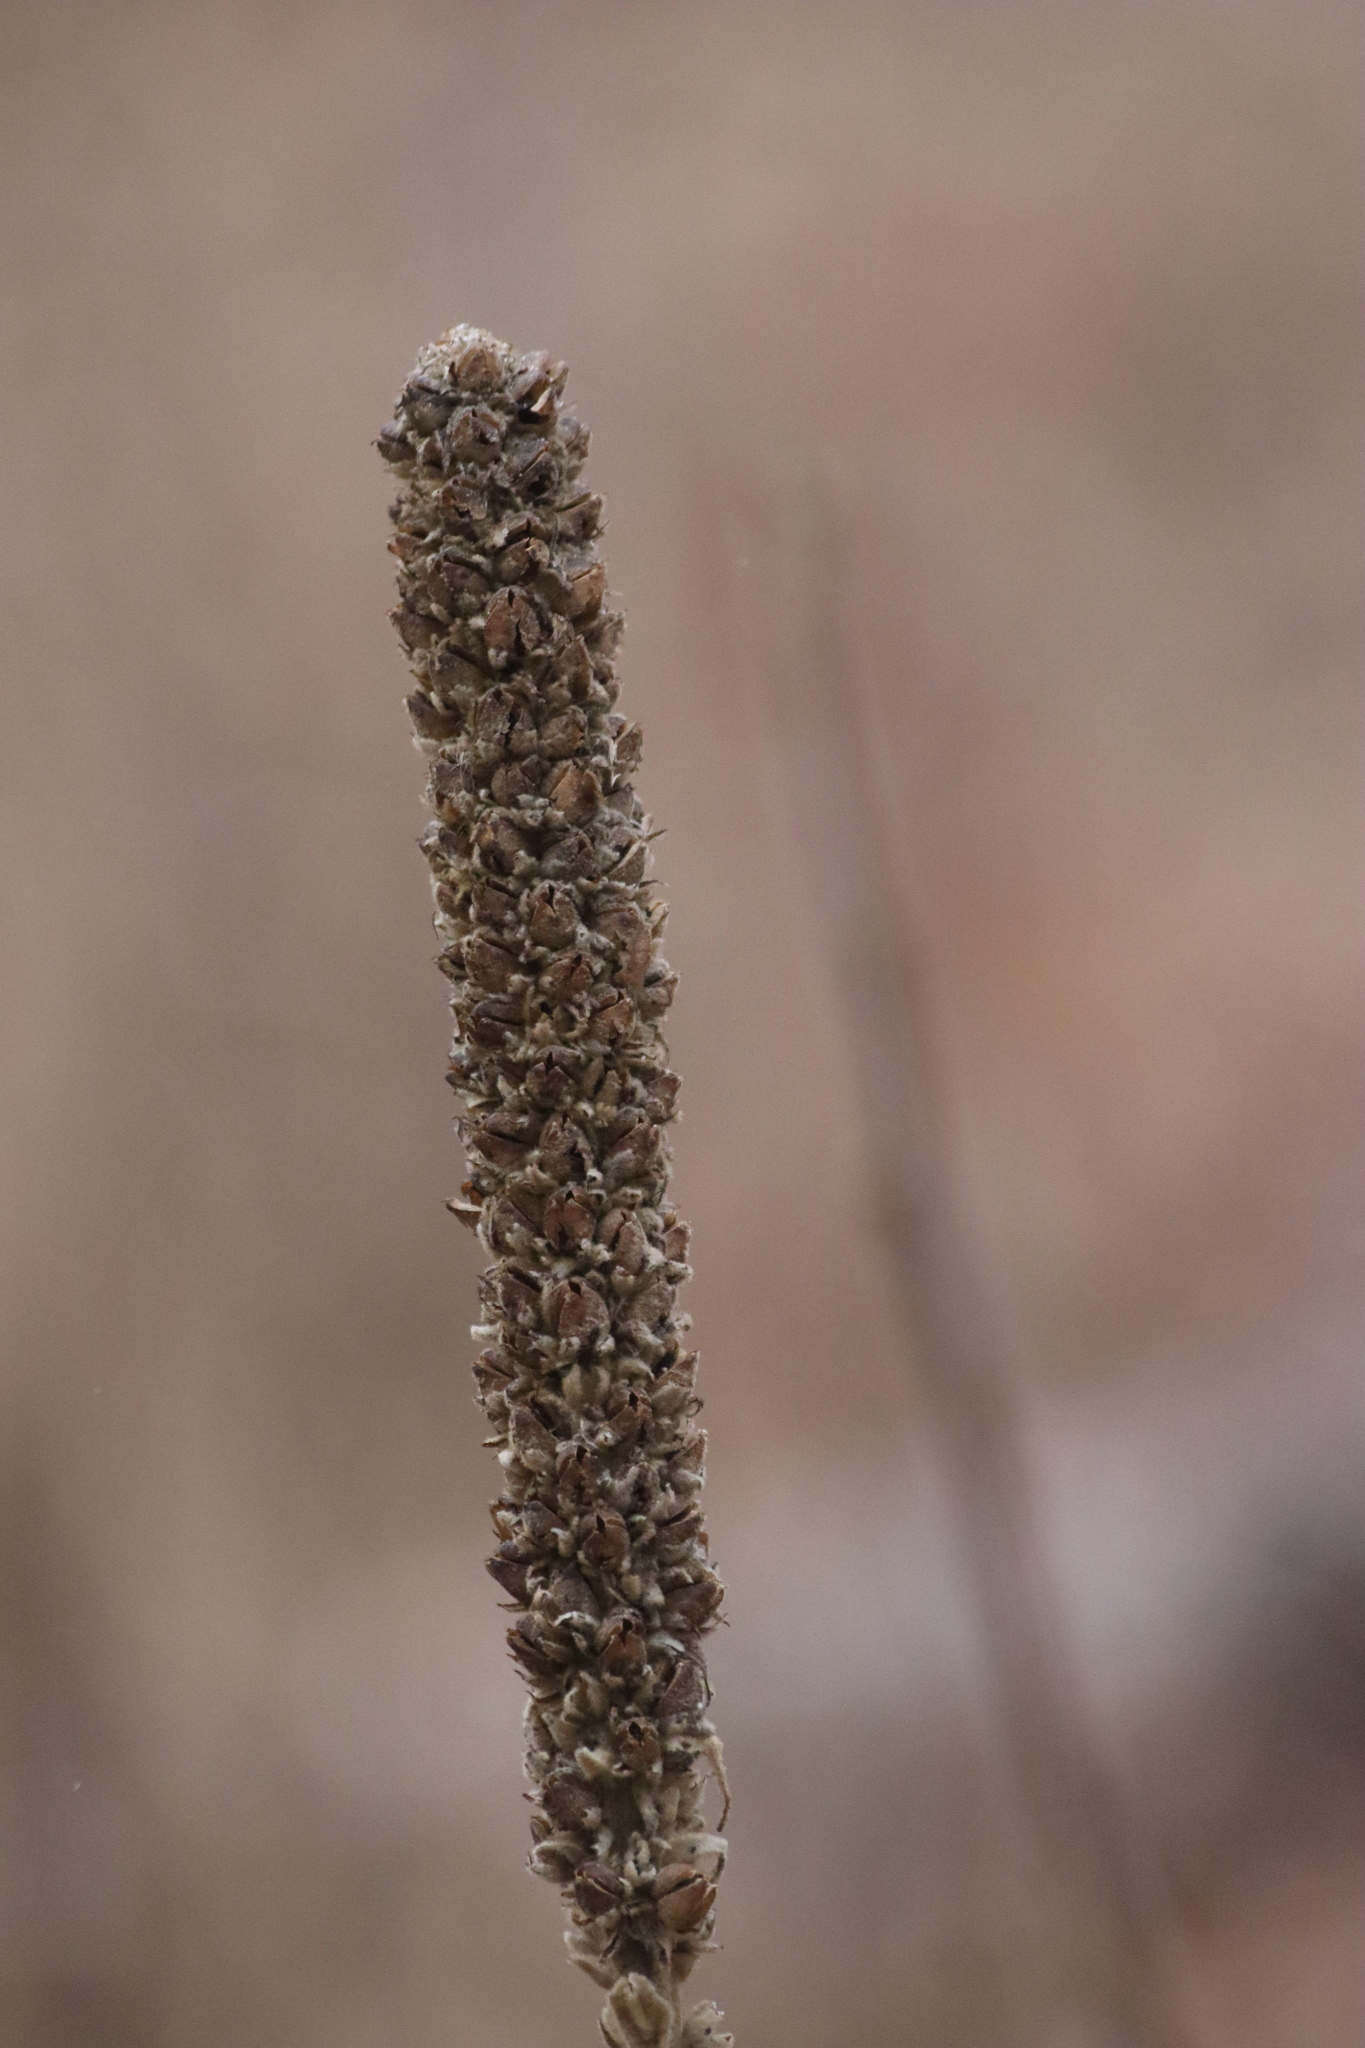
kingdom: Plantae
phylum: Tracheophyta
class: Magnoliopsida
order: Lamiales
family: Scrophulariaceae
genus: Verbascum
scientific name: Verbascum thapsus
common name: Common mullein
